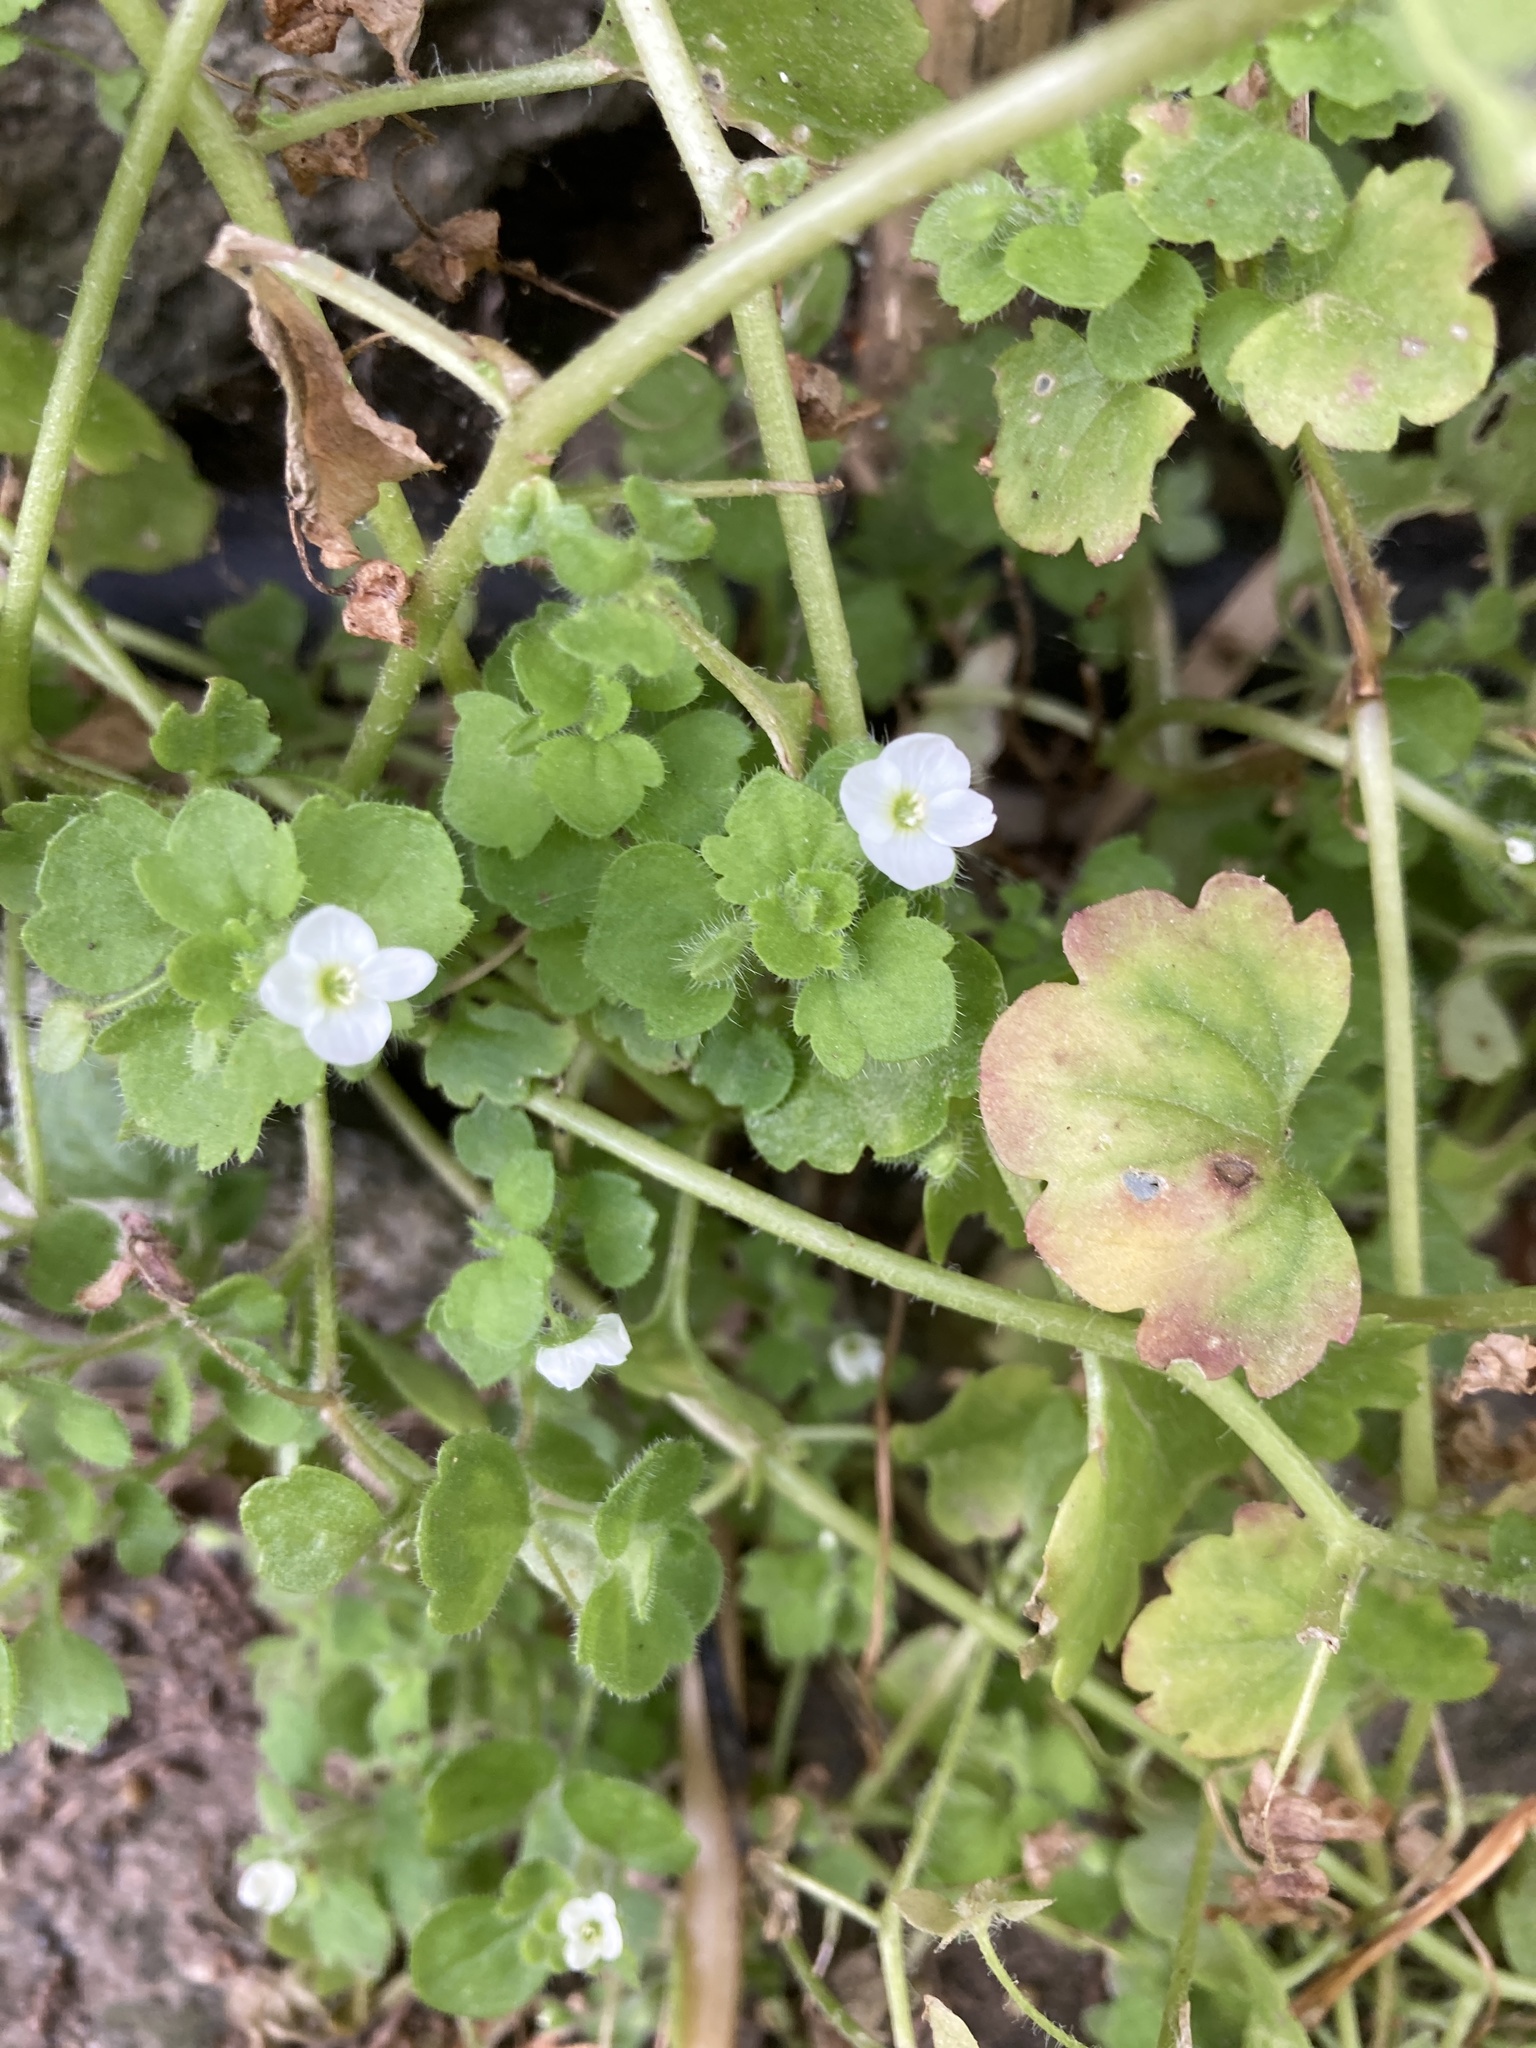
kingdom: Plantae
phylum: Tracheophyta
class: Magnoliopsida
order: Lamiales
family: Plantaginaceae
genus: Veronica
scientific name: Veronica cymbalaria
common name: Pale speedwell
